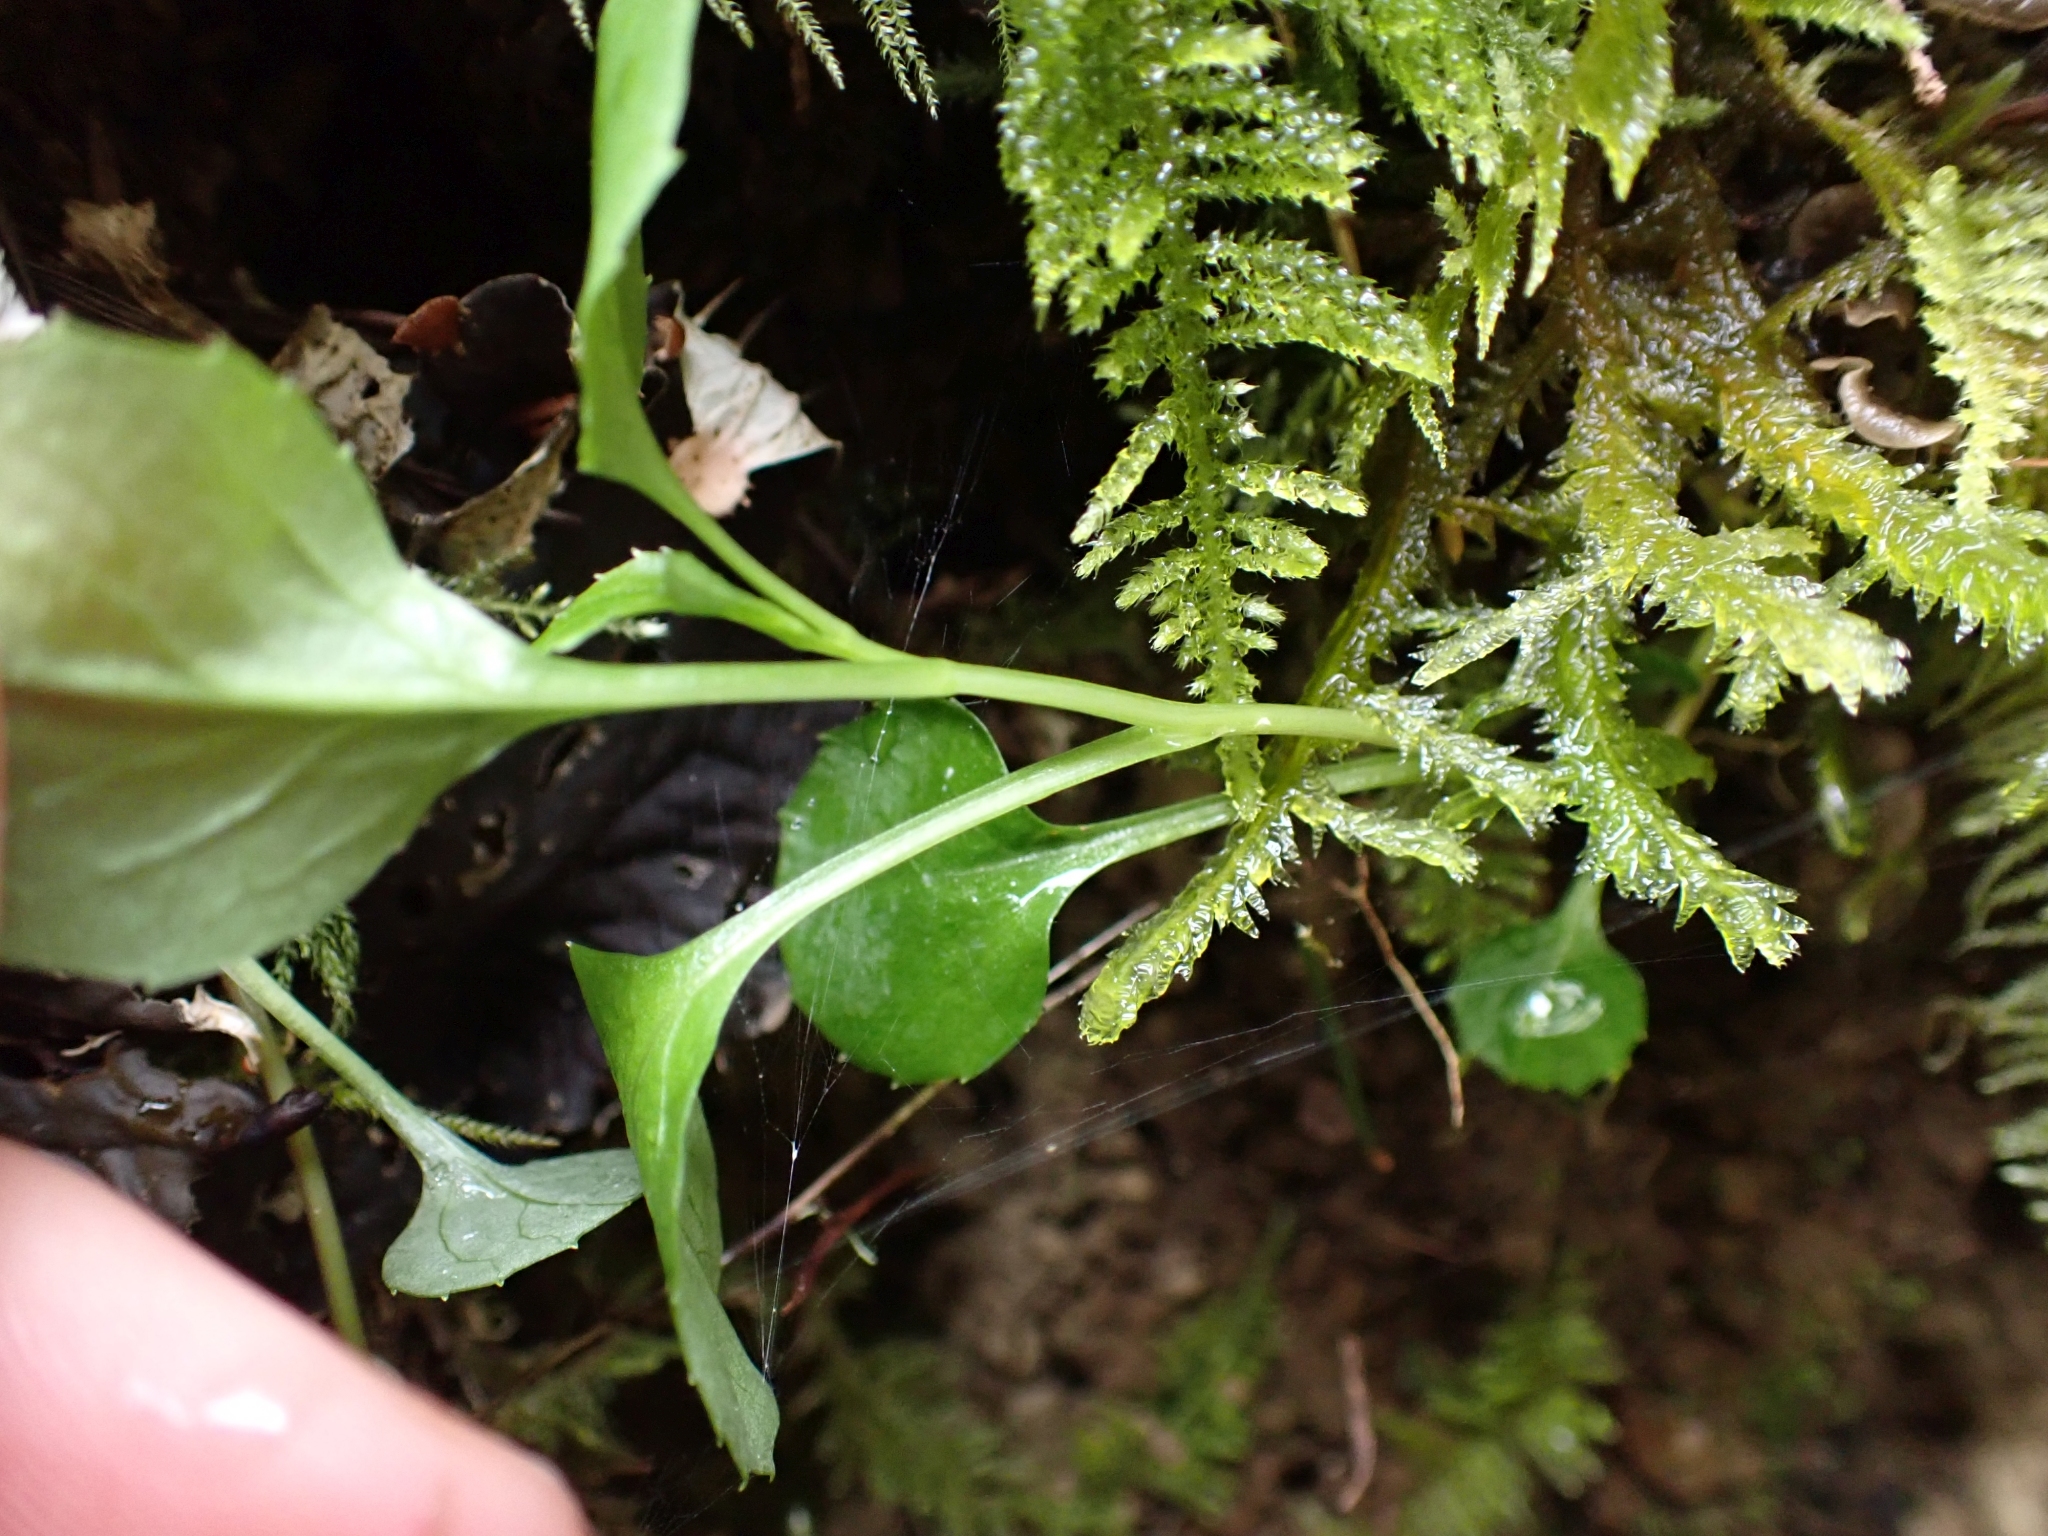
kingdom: Plantae
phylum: Tracheophyta
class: Magnoliopsida
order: Asterales
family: Campanulaceae
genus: Campanula
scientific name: Campanula scouleri
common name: Scouler's harebell
